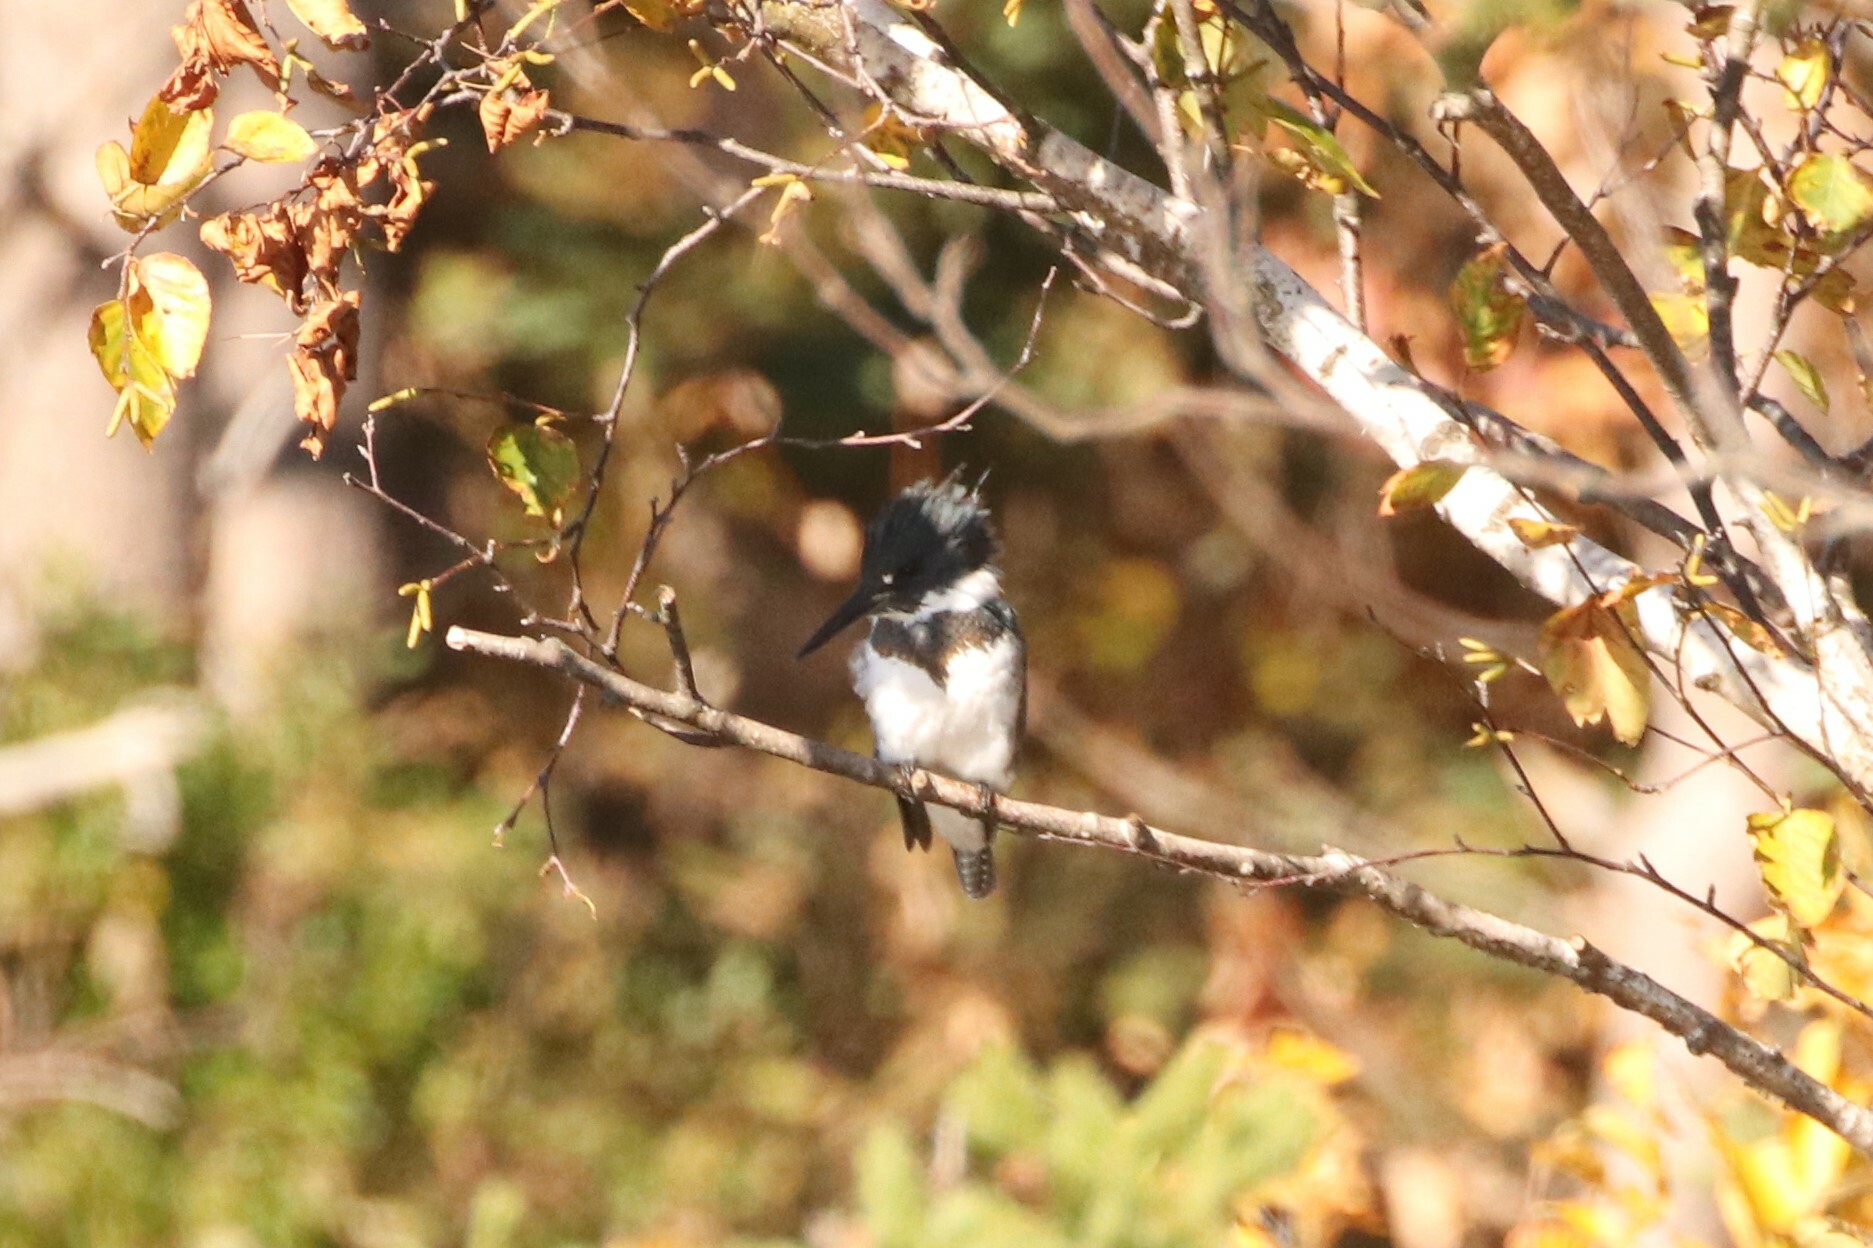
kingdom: Animalia
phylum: Chordata
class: Aves
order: Coraciiformes
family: Alcedinidae
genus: Megaceryle
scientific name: Megaceryle alcyon
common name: Belted kingfisher
